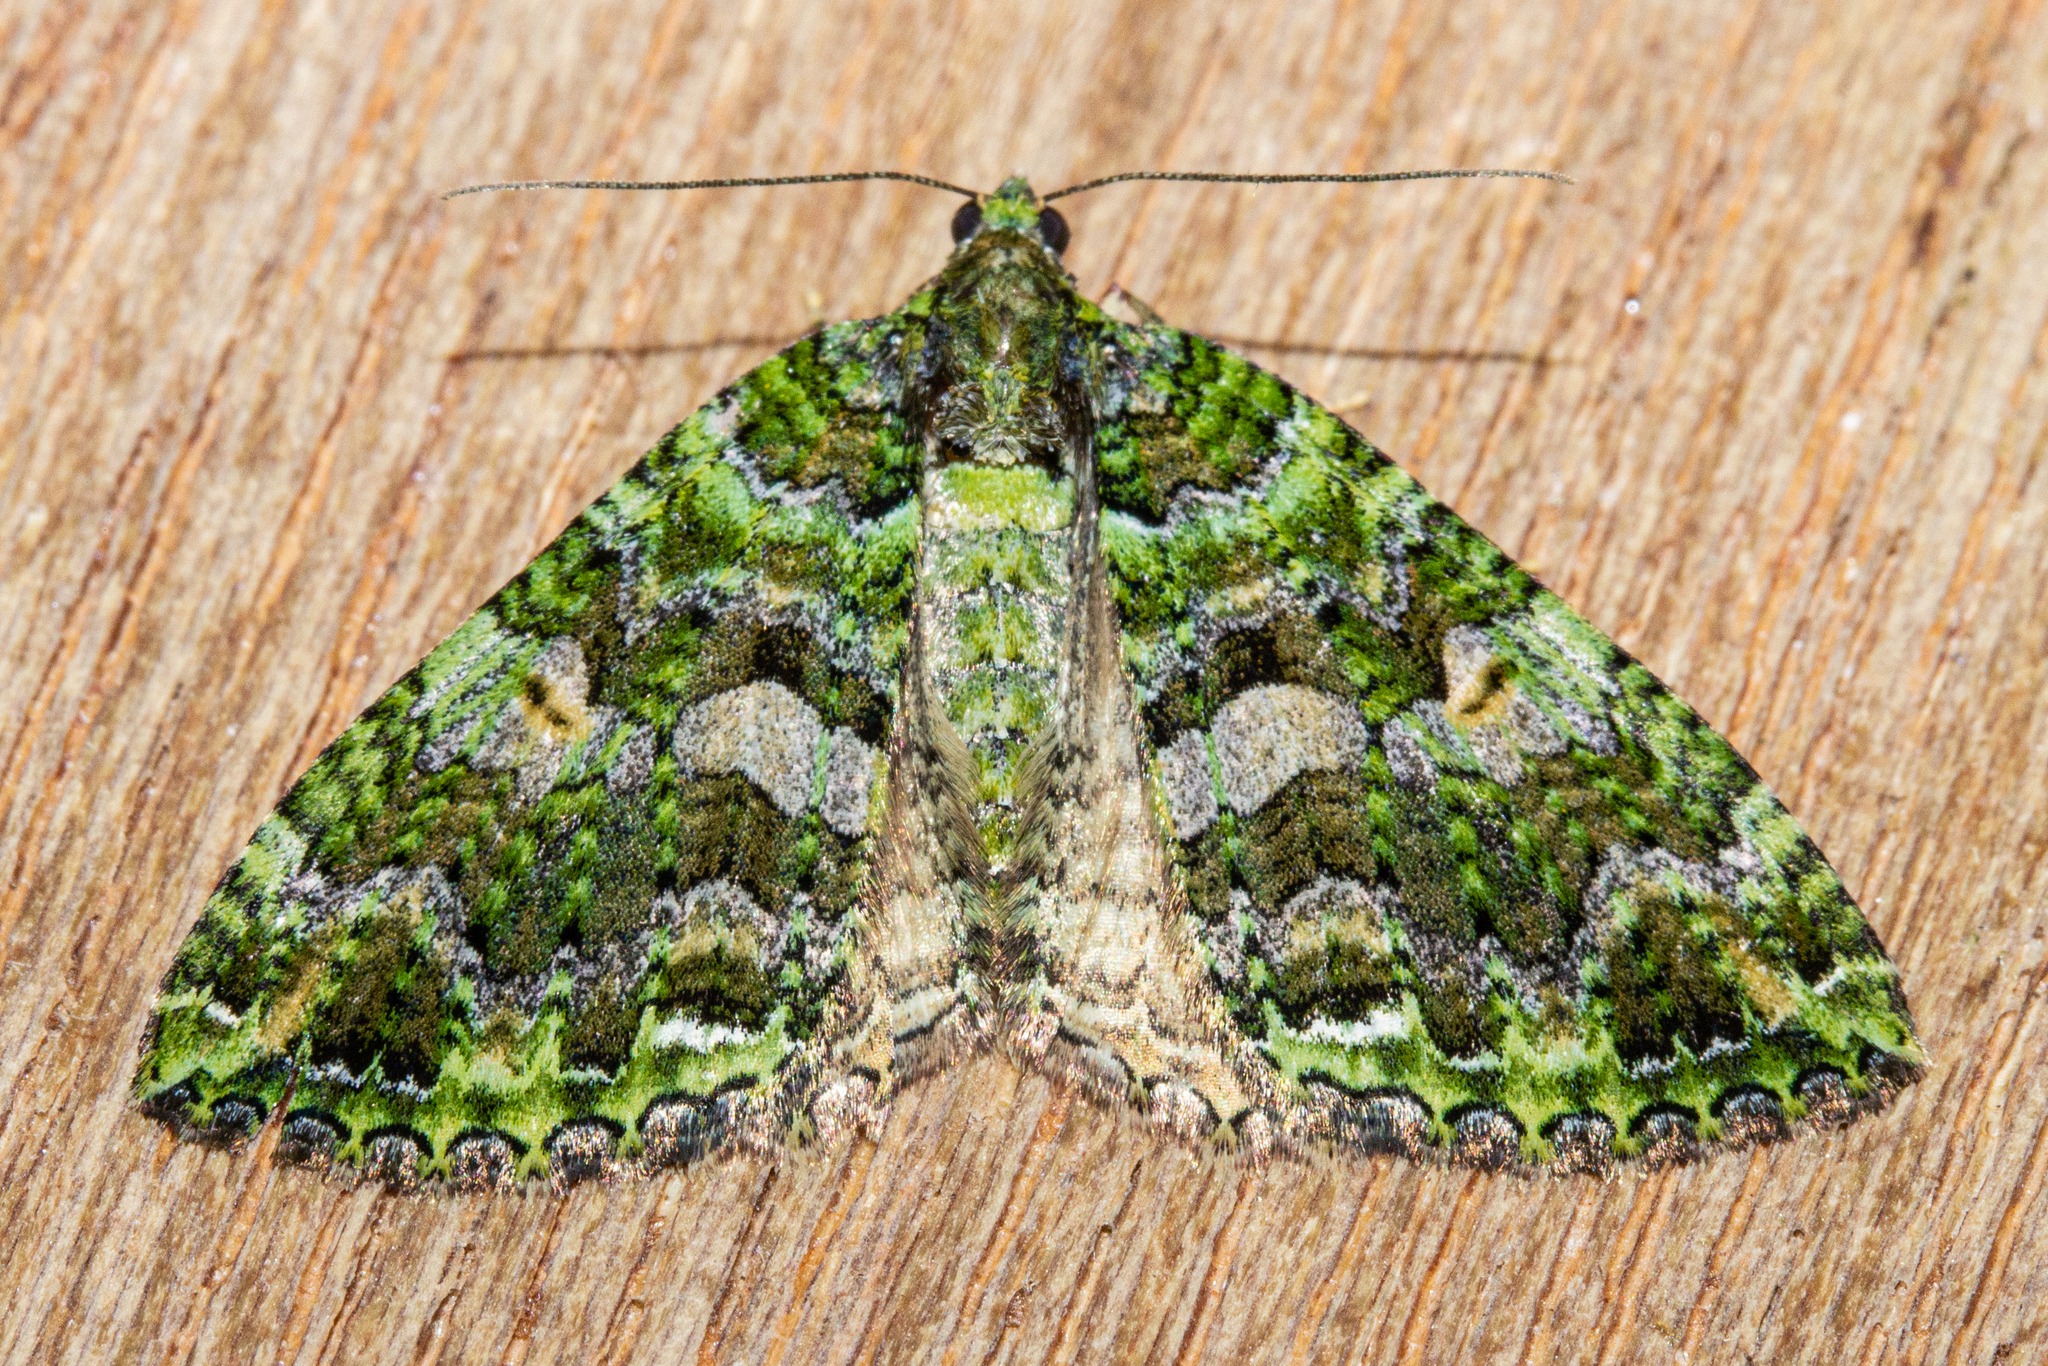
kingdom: Animalia
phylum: Arthropoda
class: Insecta
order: Lepidoptera
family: Geometridae
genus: Austrocidaria
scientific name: Austrocidaria similata
